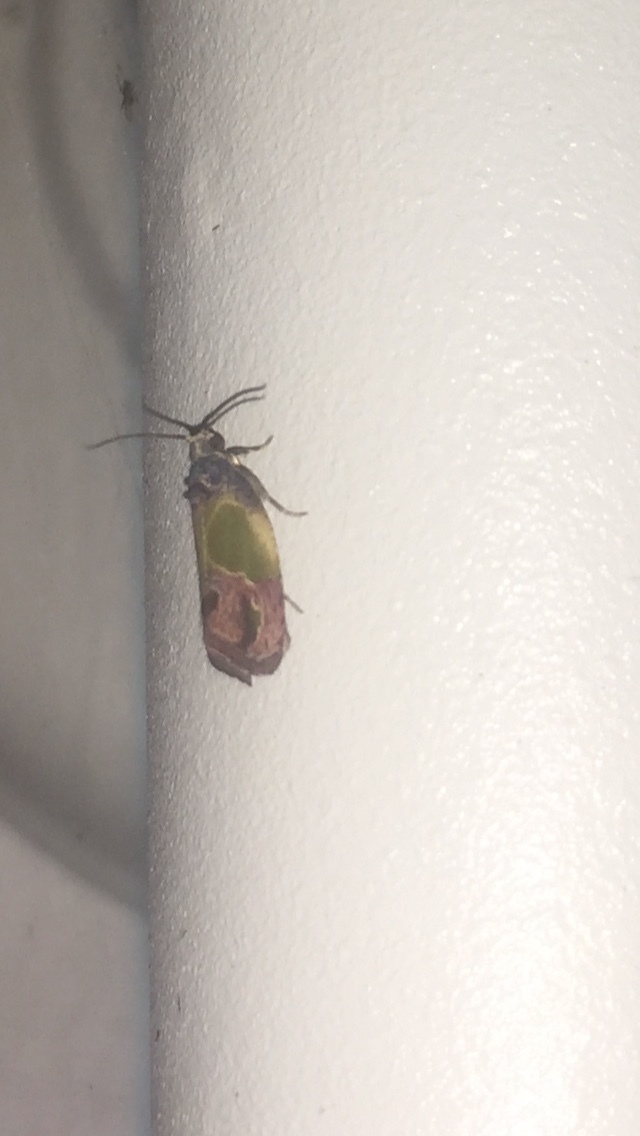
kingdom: Animalia
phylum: Arthropoda
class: Insecta
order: Lepidoptera
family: Tortricidae
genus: Eumarozia
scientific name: Eumarozia malachitana
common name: Sculptured moth
